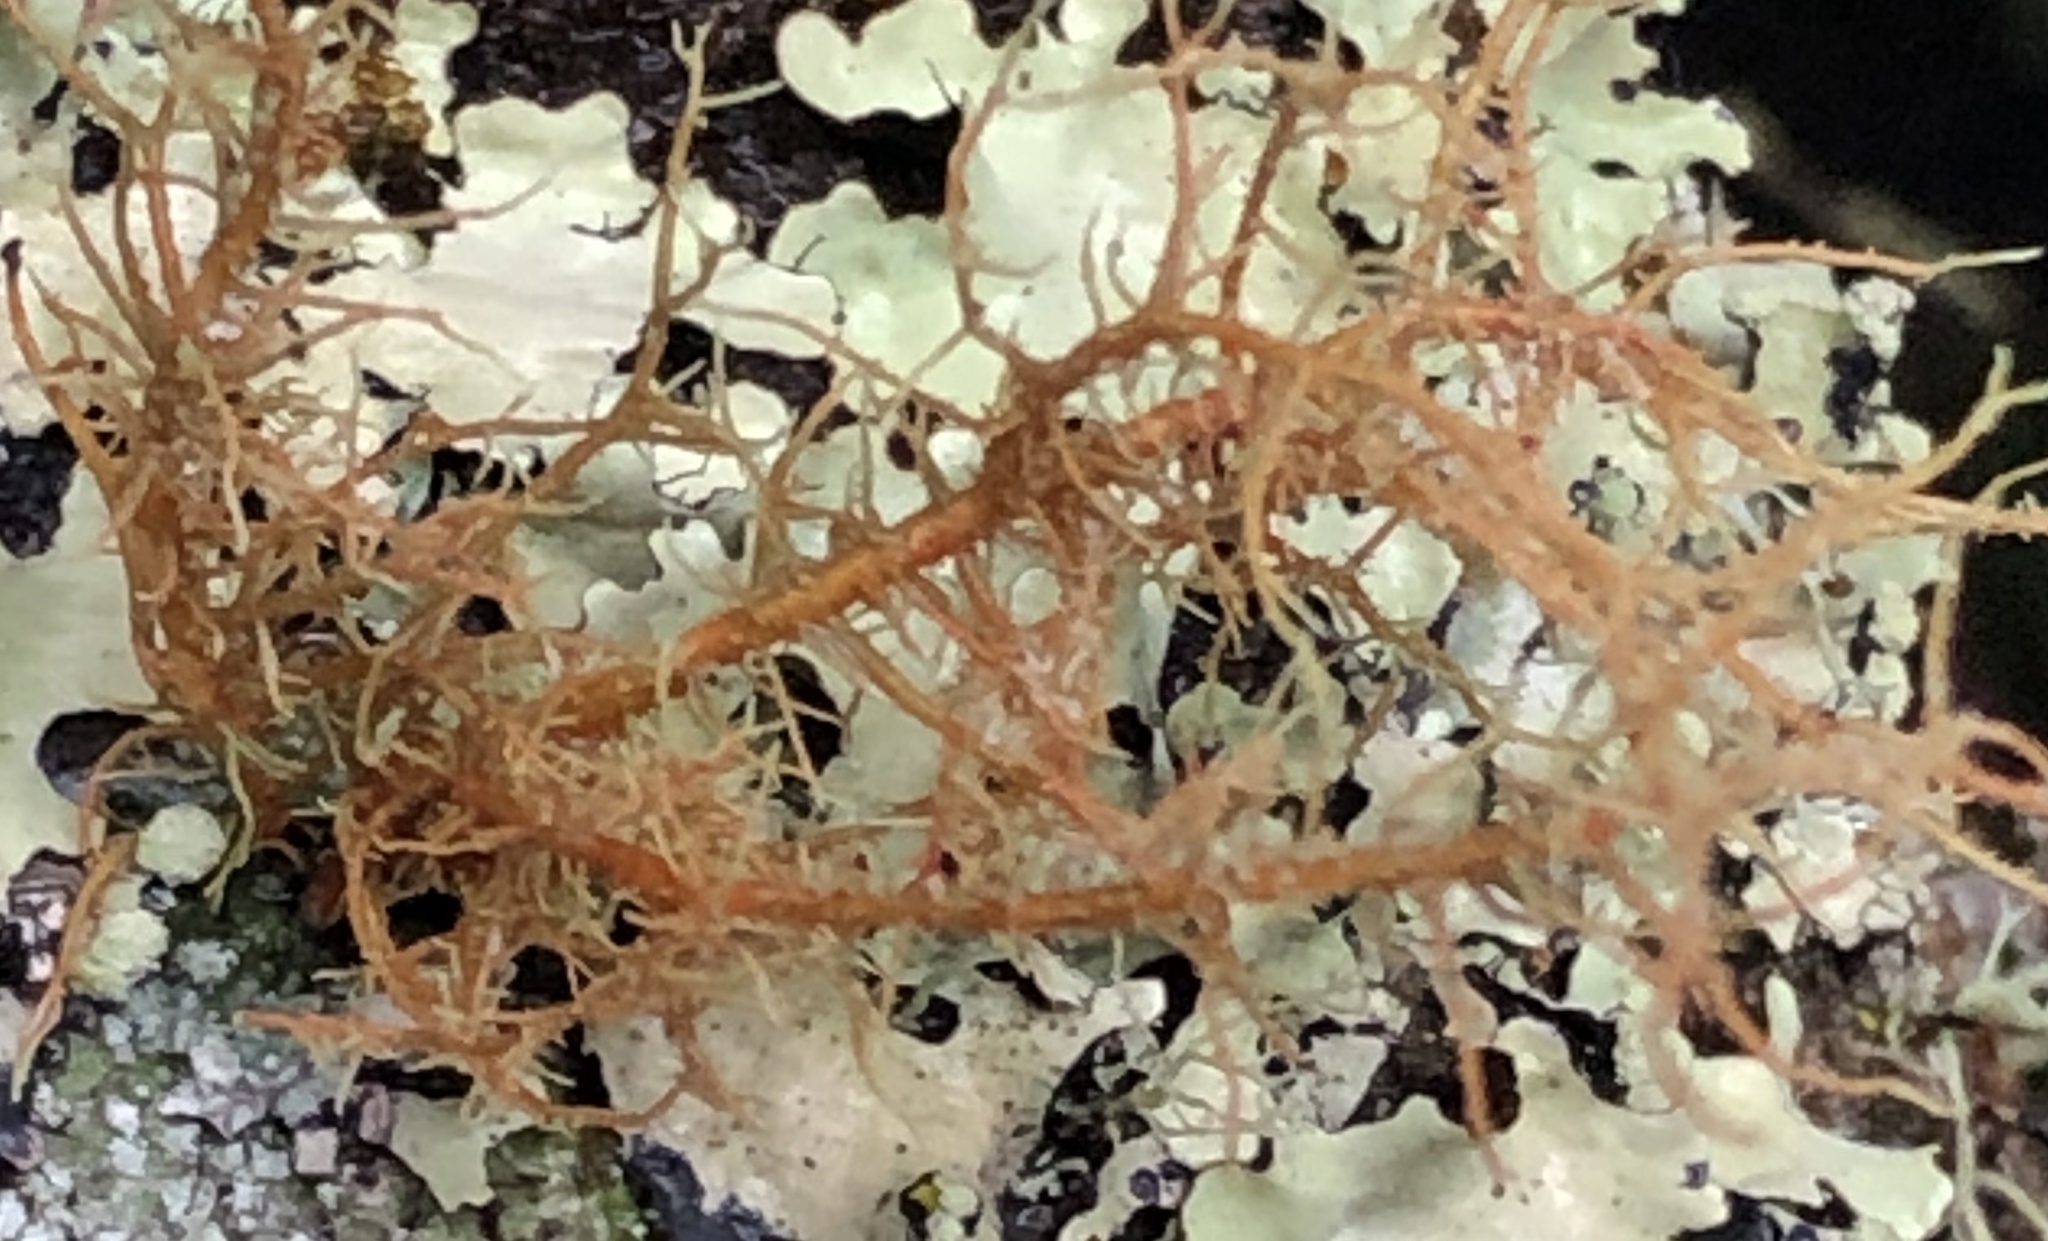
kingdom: Fungi
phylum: Ascomycota
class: Lecanoromycetes
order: Lecanorales
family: Parmeliaceae
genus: Usnea
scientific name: Usnea rubicunda
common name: Red beard lichen
